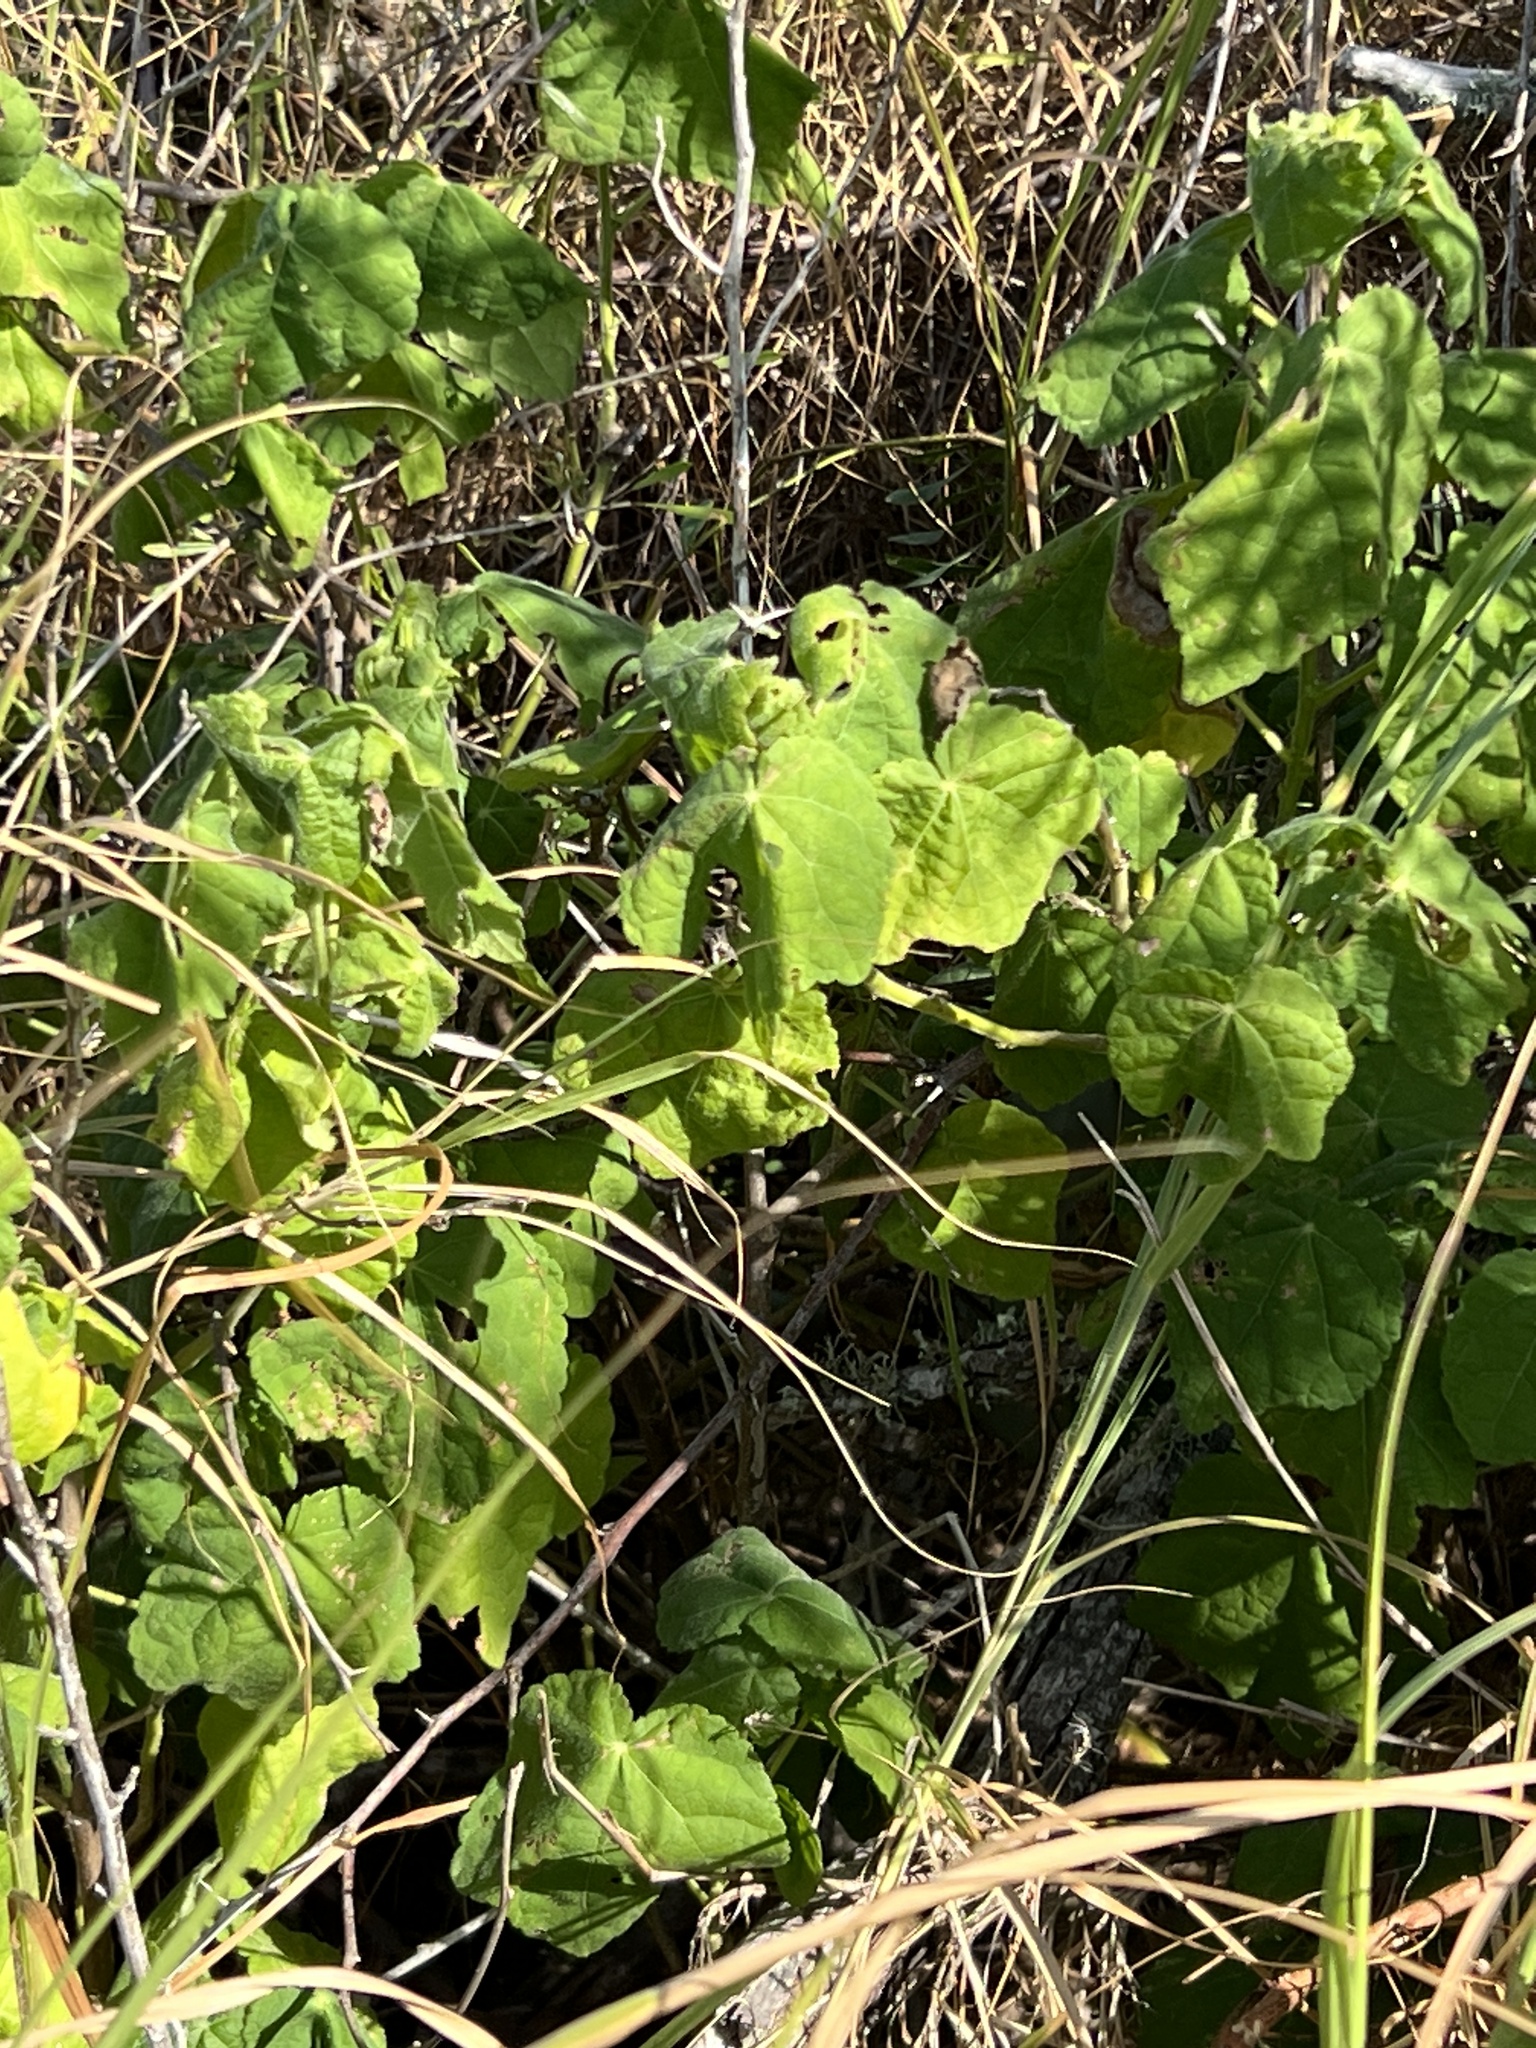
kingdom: Plantae
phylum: Tracheophyta
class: Magnoliopsida
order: Malvales
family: Malvaceae
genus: Malvaviscus
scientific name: Malvaviscus arboreus
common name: Wax mallow
